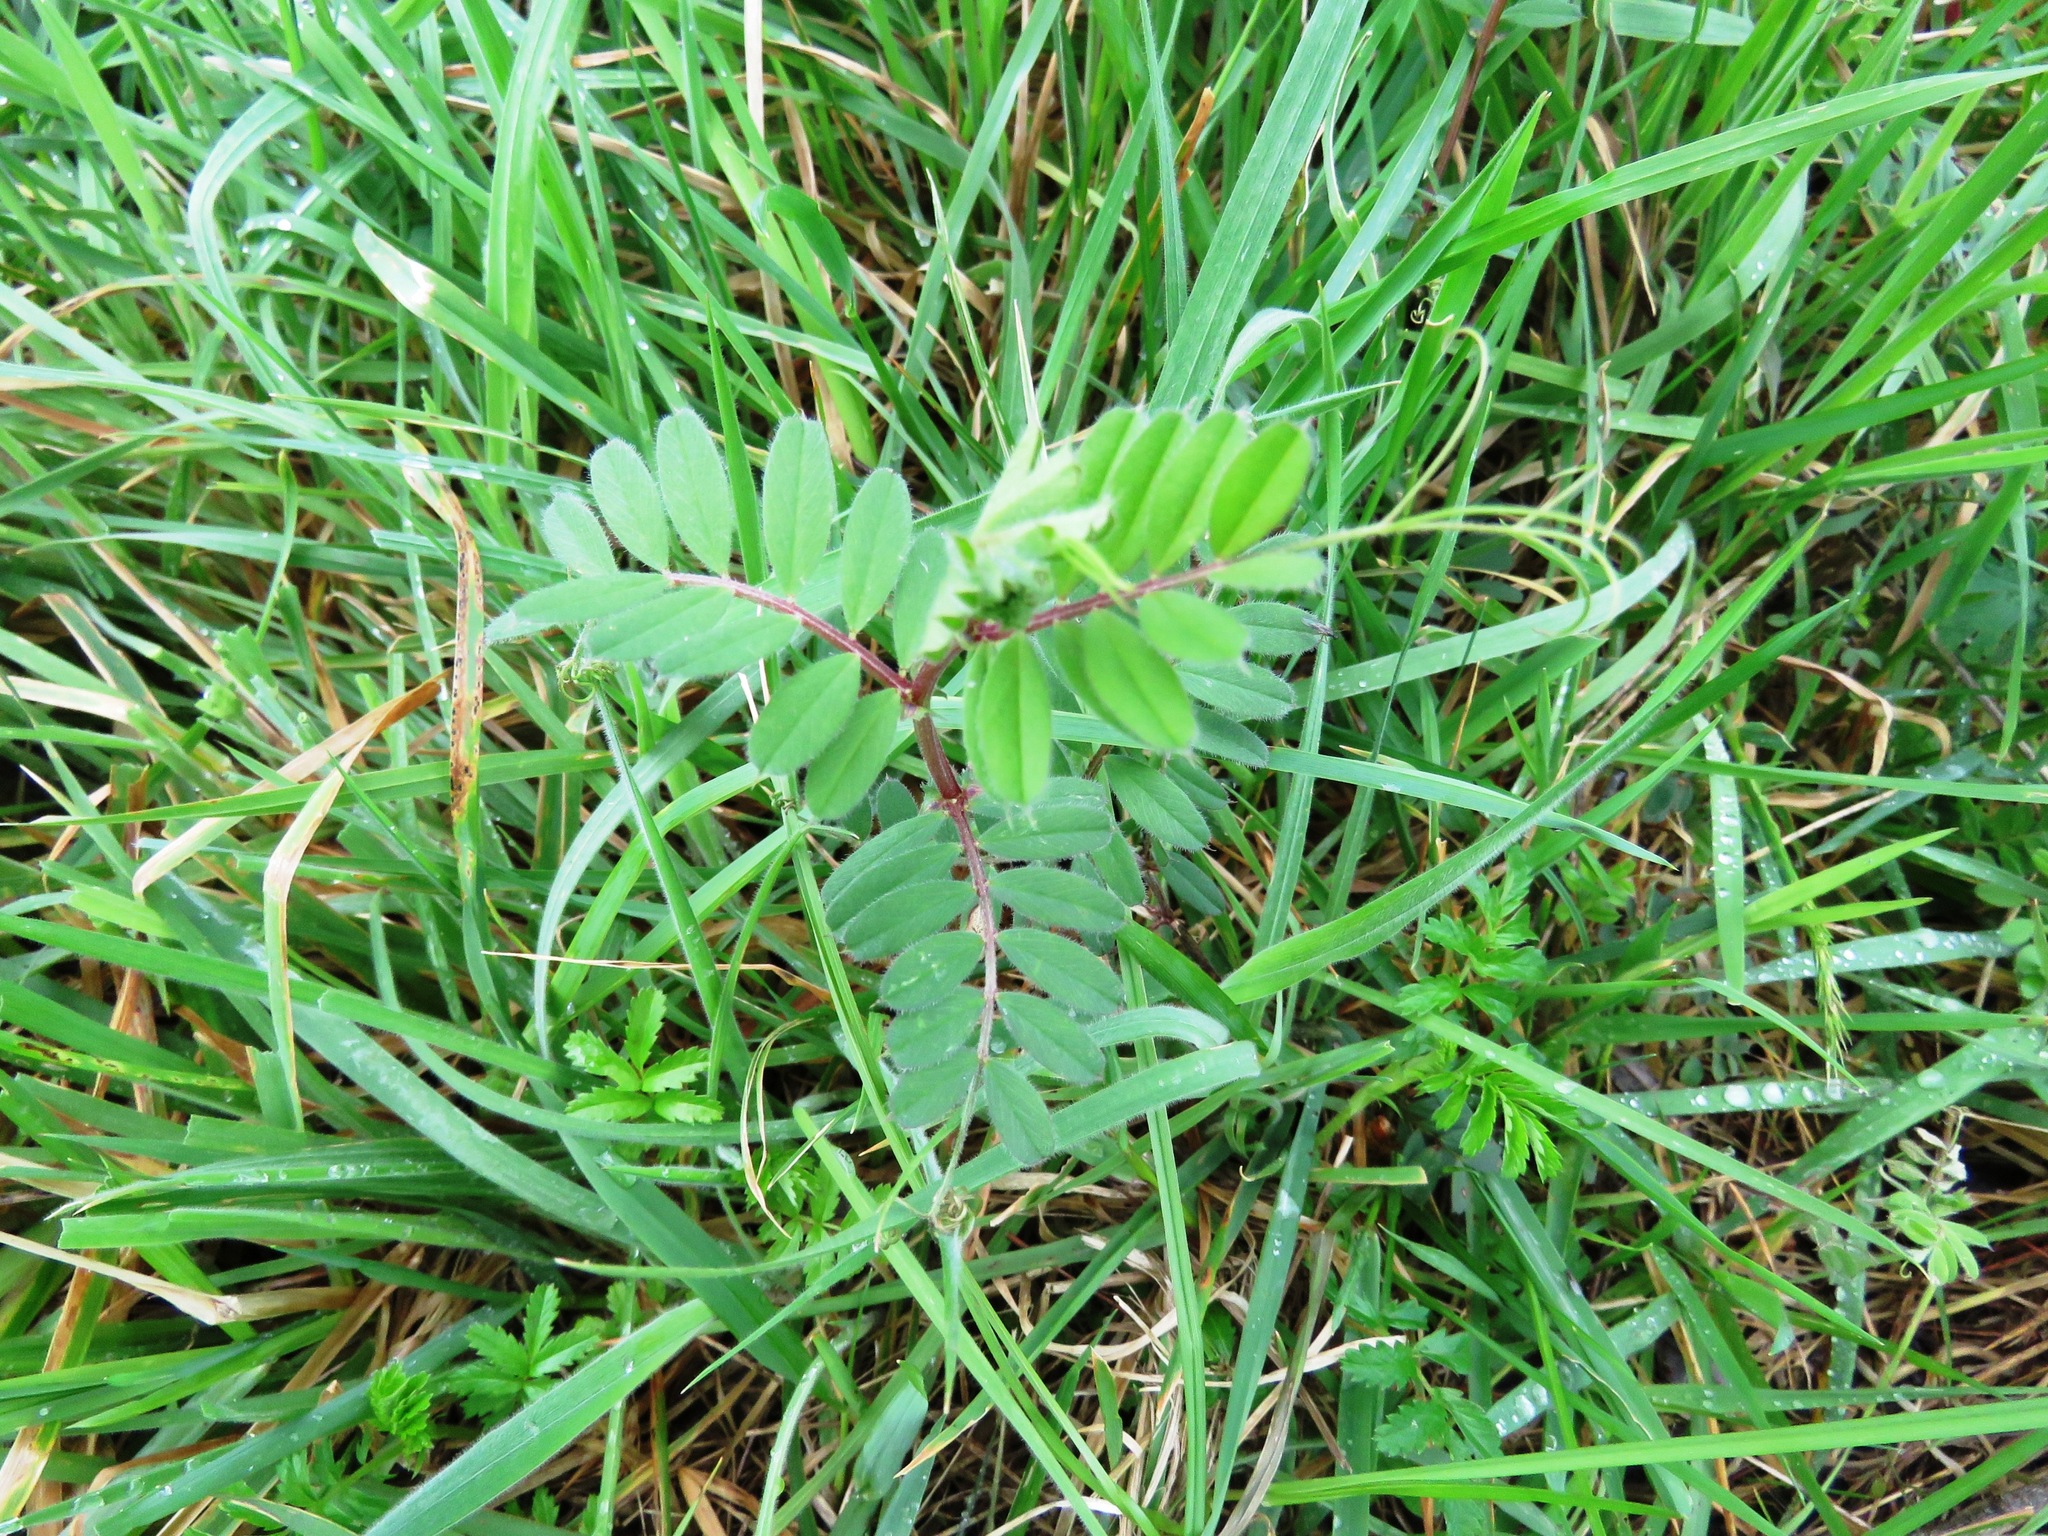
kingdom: Plantae
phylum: Tracheophyta
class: Magnoliopsida
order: Fabales
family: Fabaceae
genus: Vicia
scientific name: Vicia sativa
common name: Garden vetch
